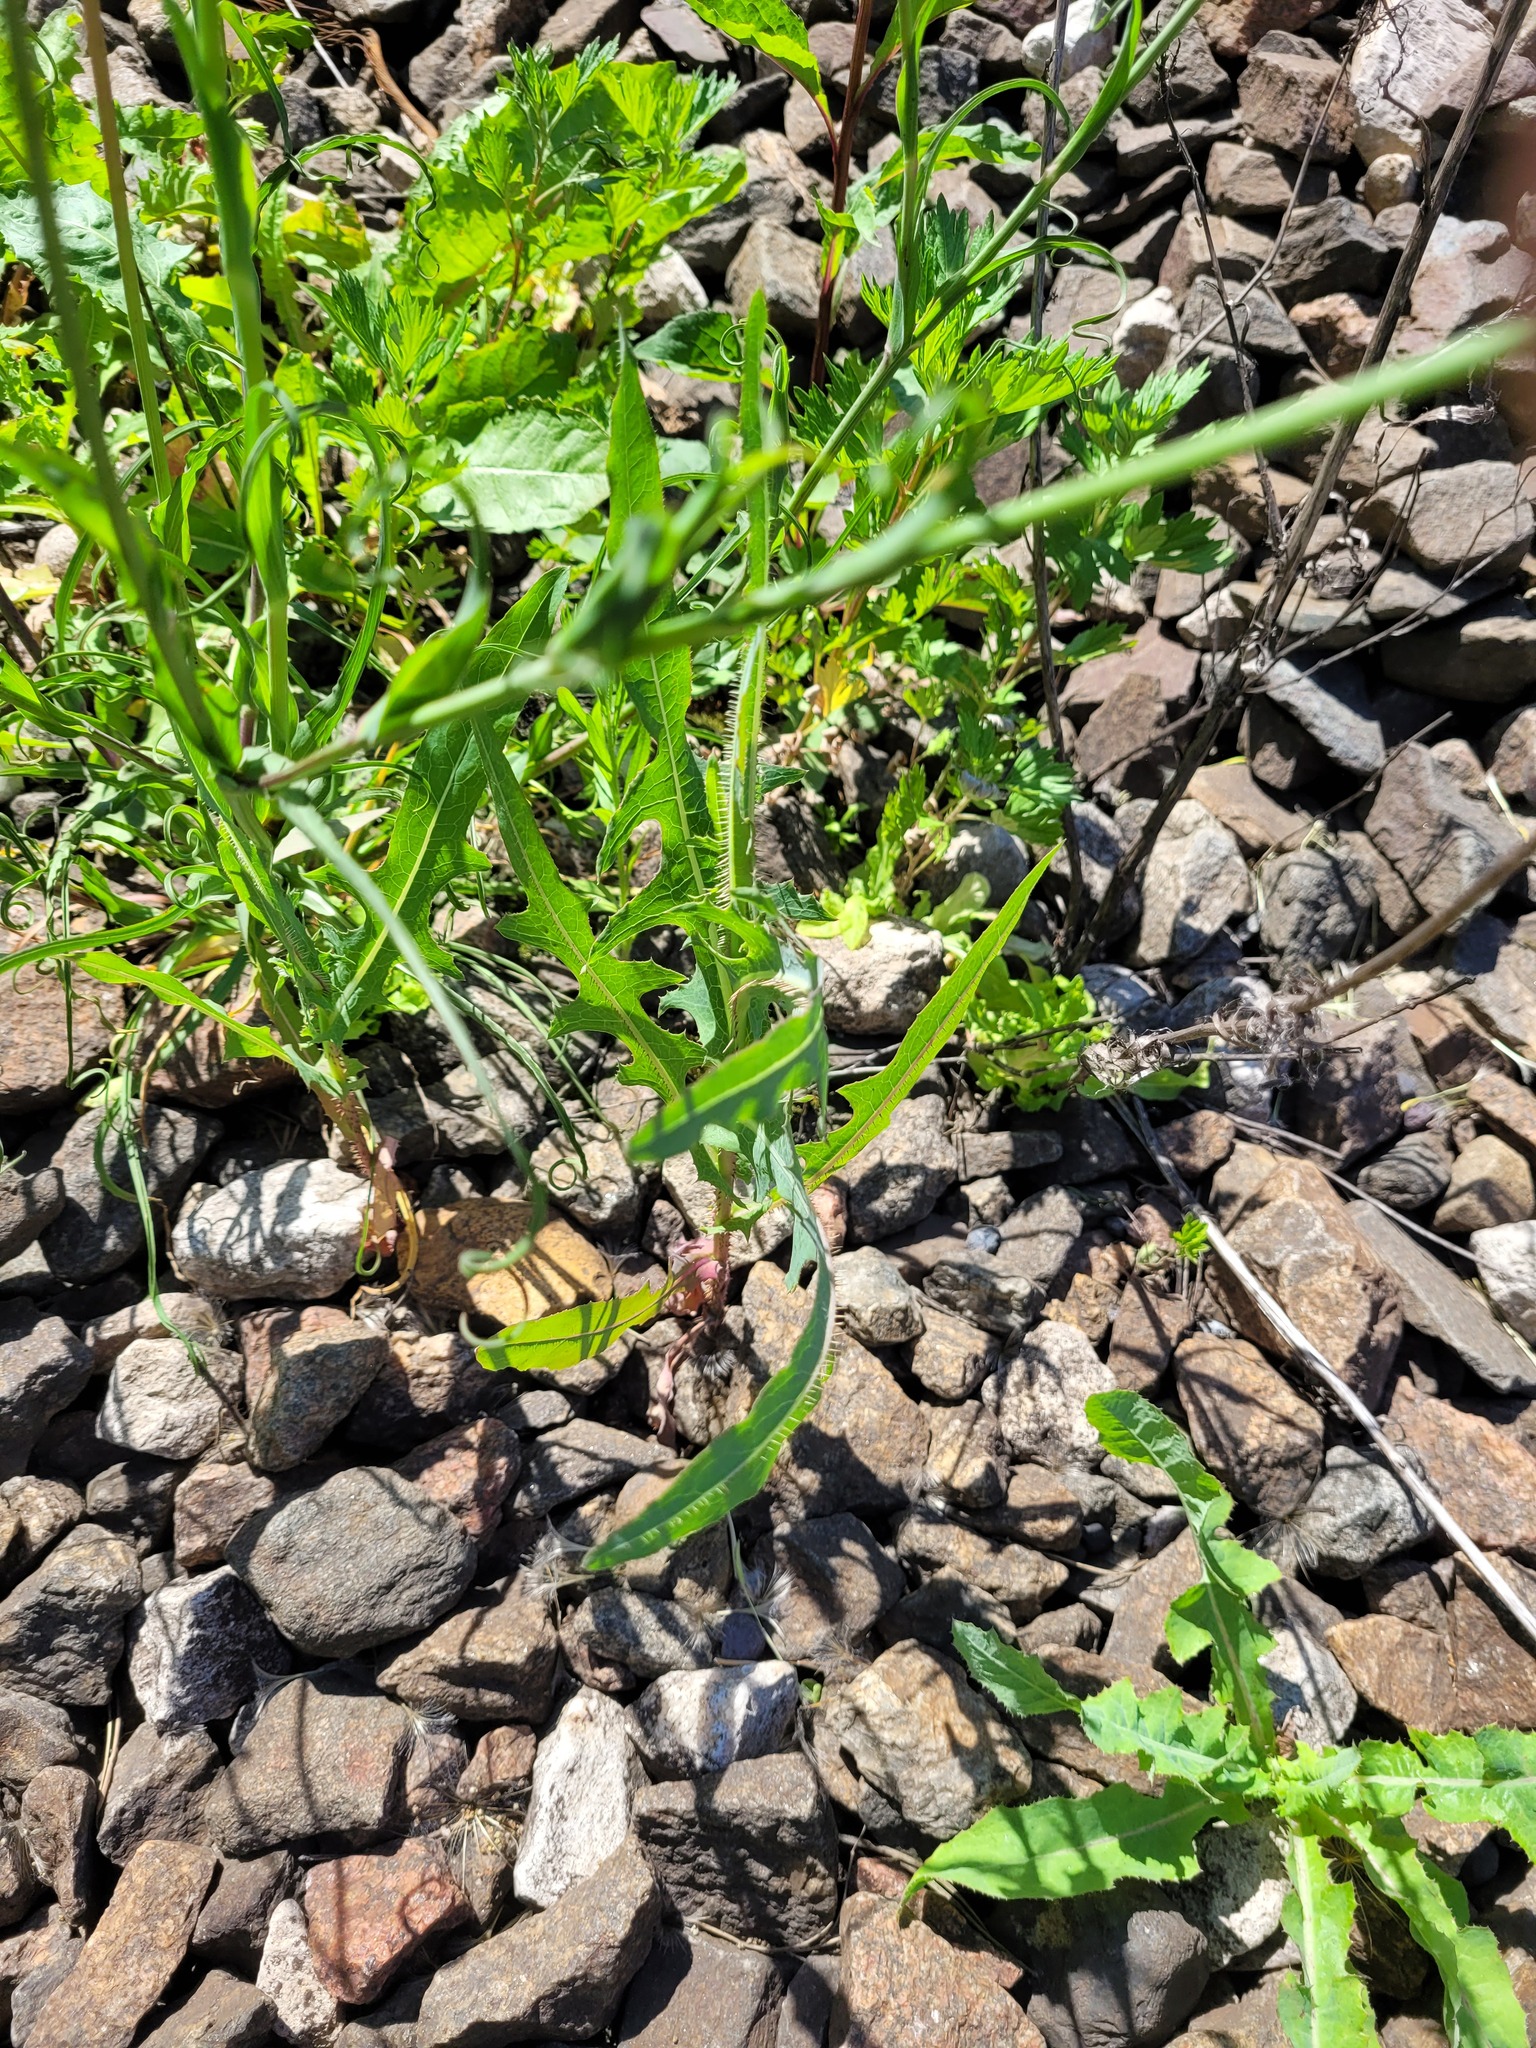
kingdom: Plantae
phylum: Tracheophyta
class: Magnoliopsida
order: Asterales
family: Asteraceae
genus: Lactuca
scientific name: Lactuca serriola
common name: Prickly lettuce
